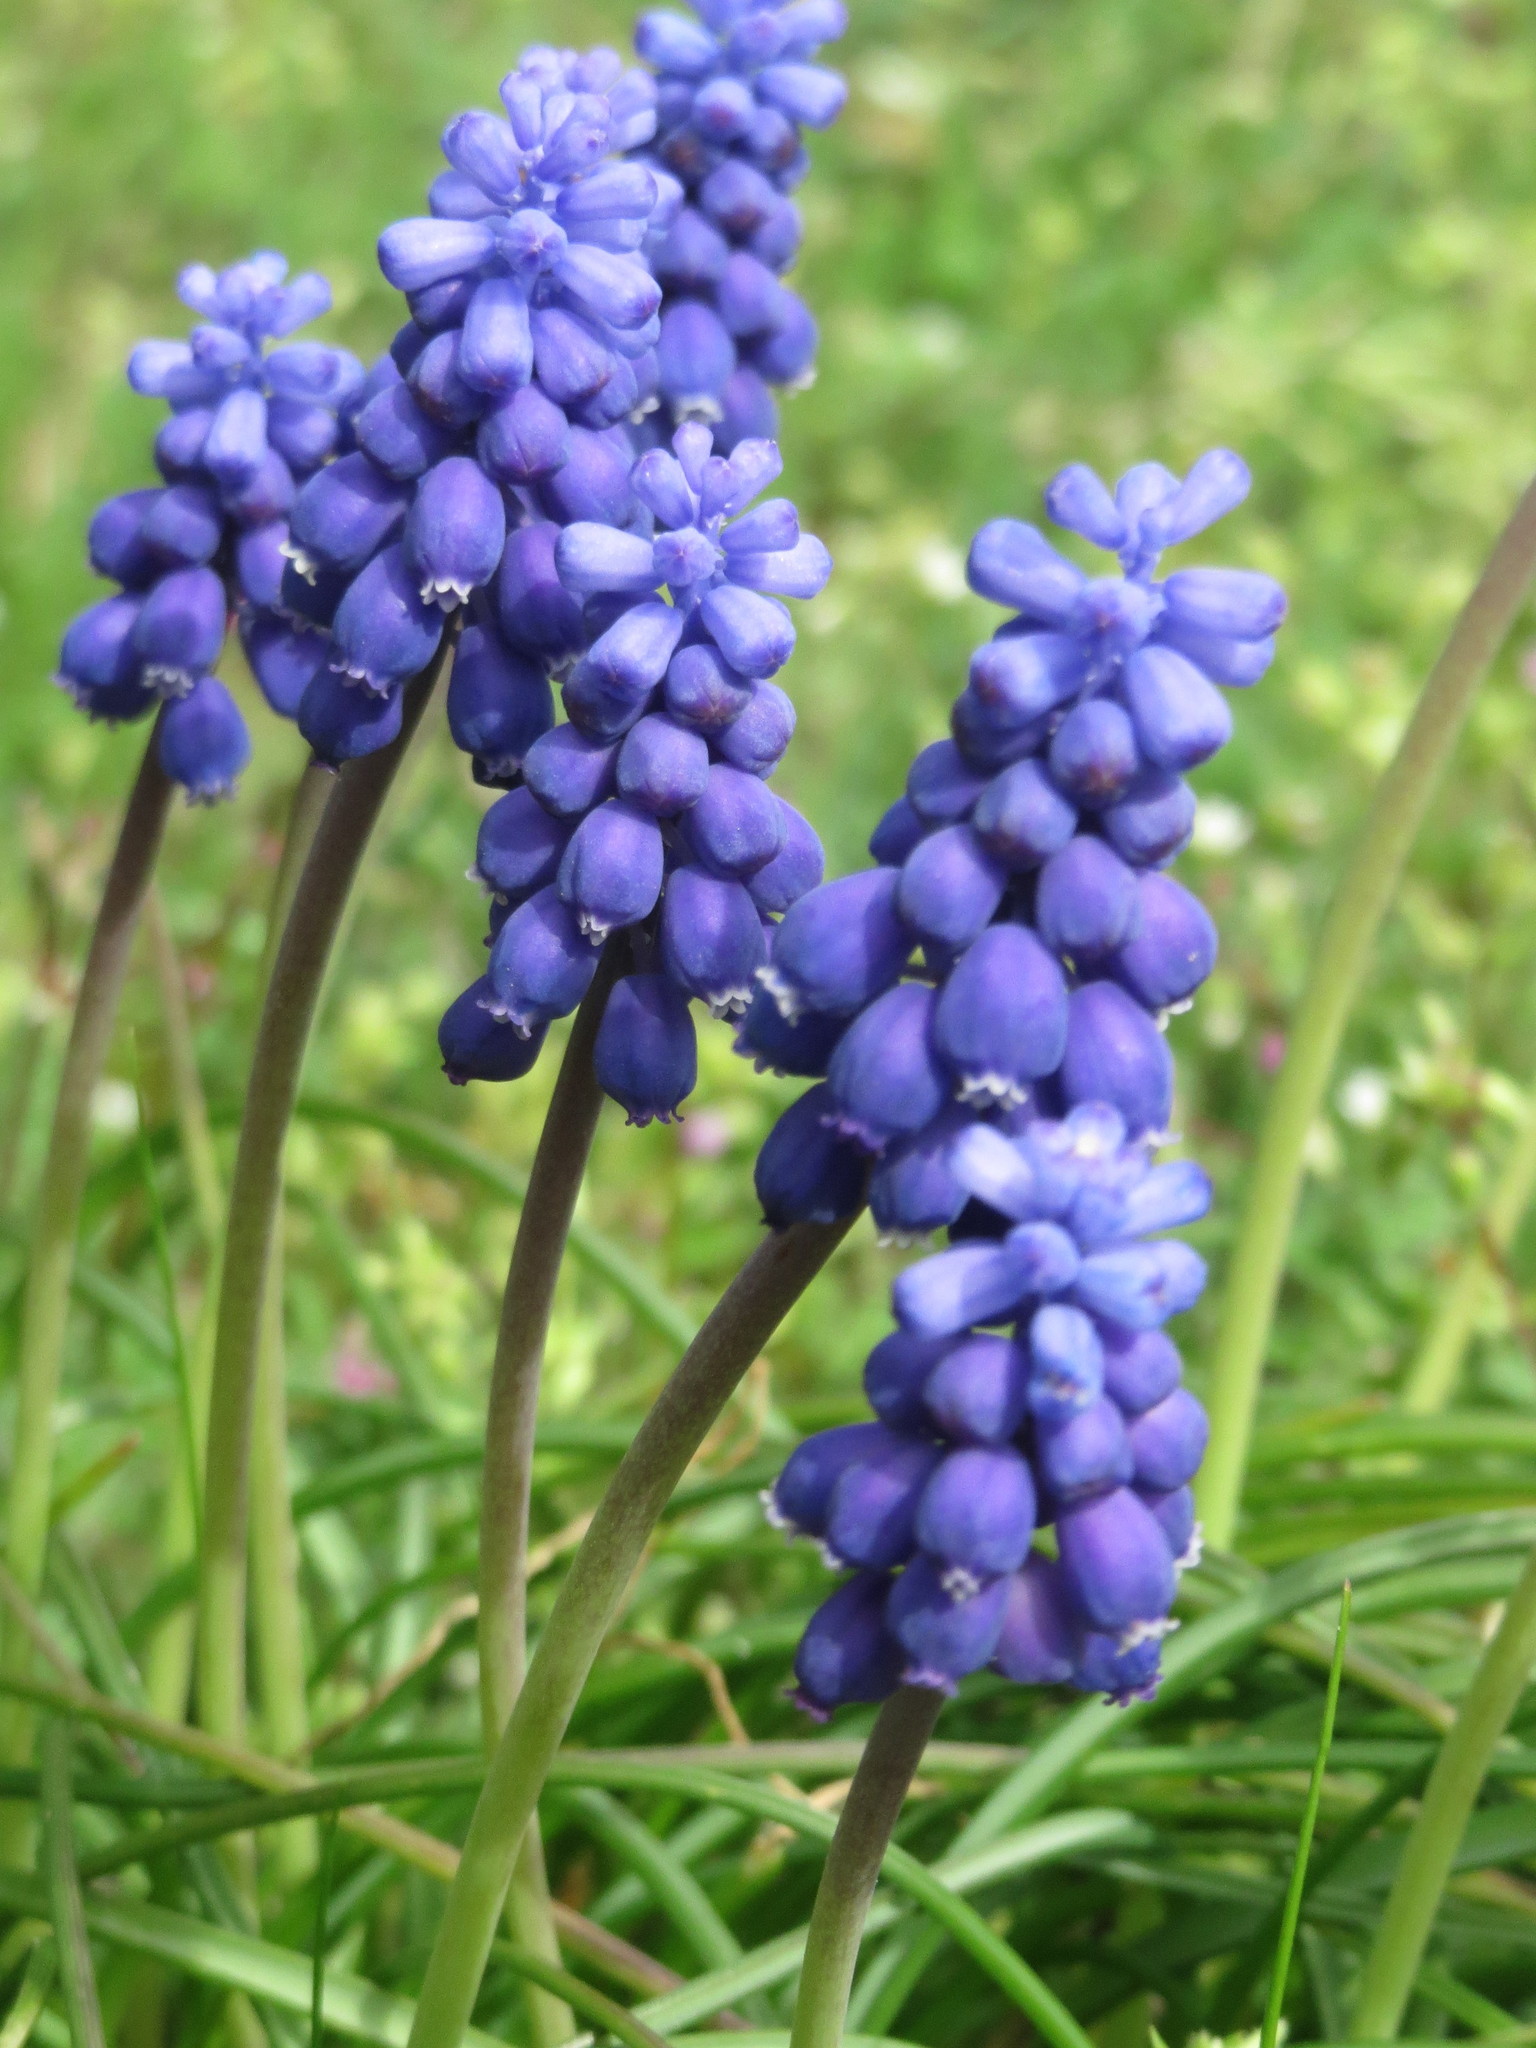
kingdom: Plantae
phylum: Tracheophyta
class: Liliopsida
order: Asparagales
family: Asparagaceae
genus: Muscari
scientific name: Muscari armeniacum
